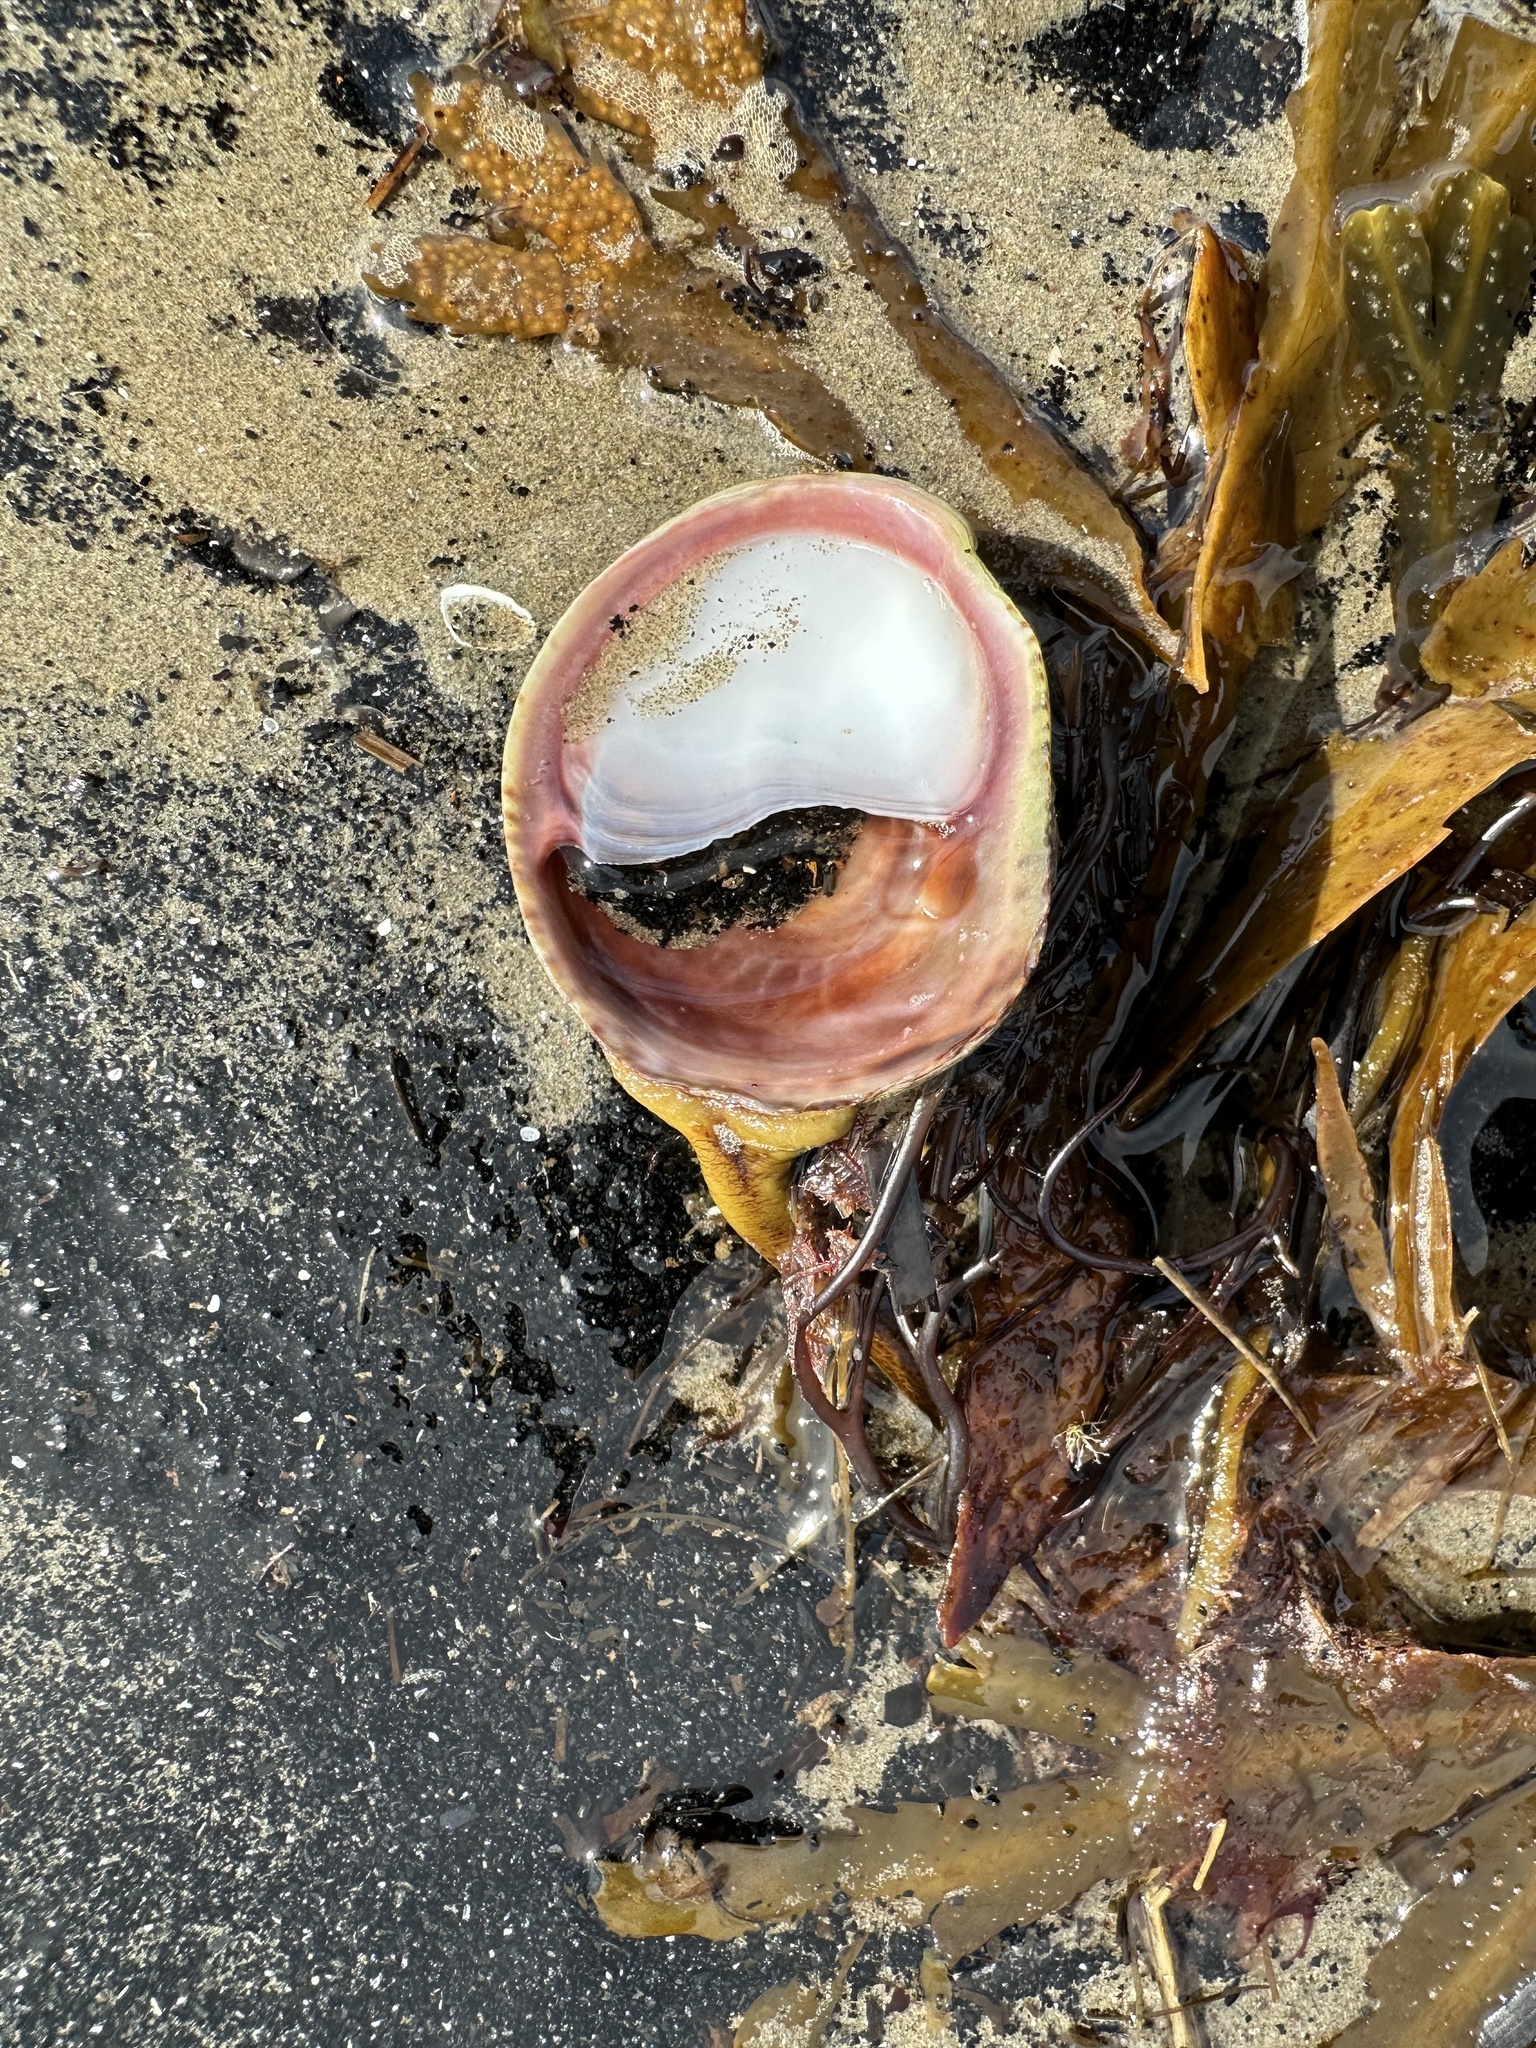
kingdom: Animalia
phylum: Mollusca
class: Gastropoda
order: Littorinimorpha
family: Calyptraeidae
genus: Crepidula
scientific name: Crepidula fornicata
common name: Slipper limpet
